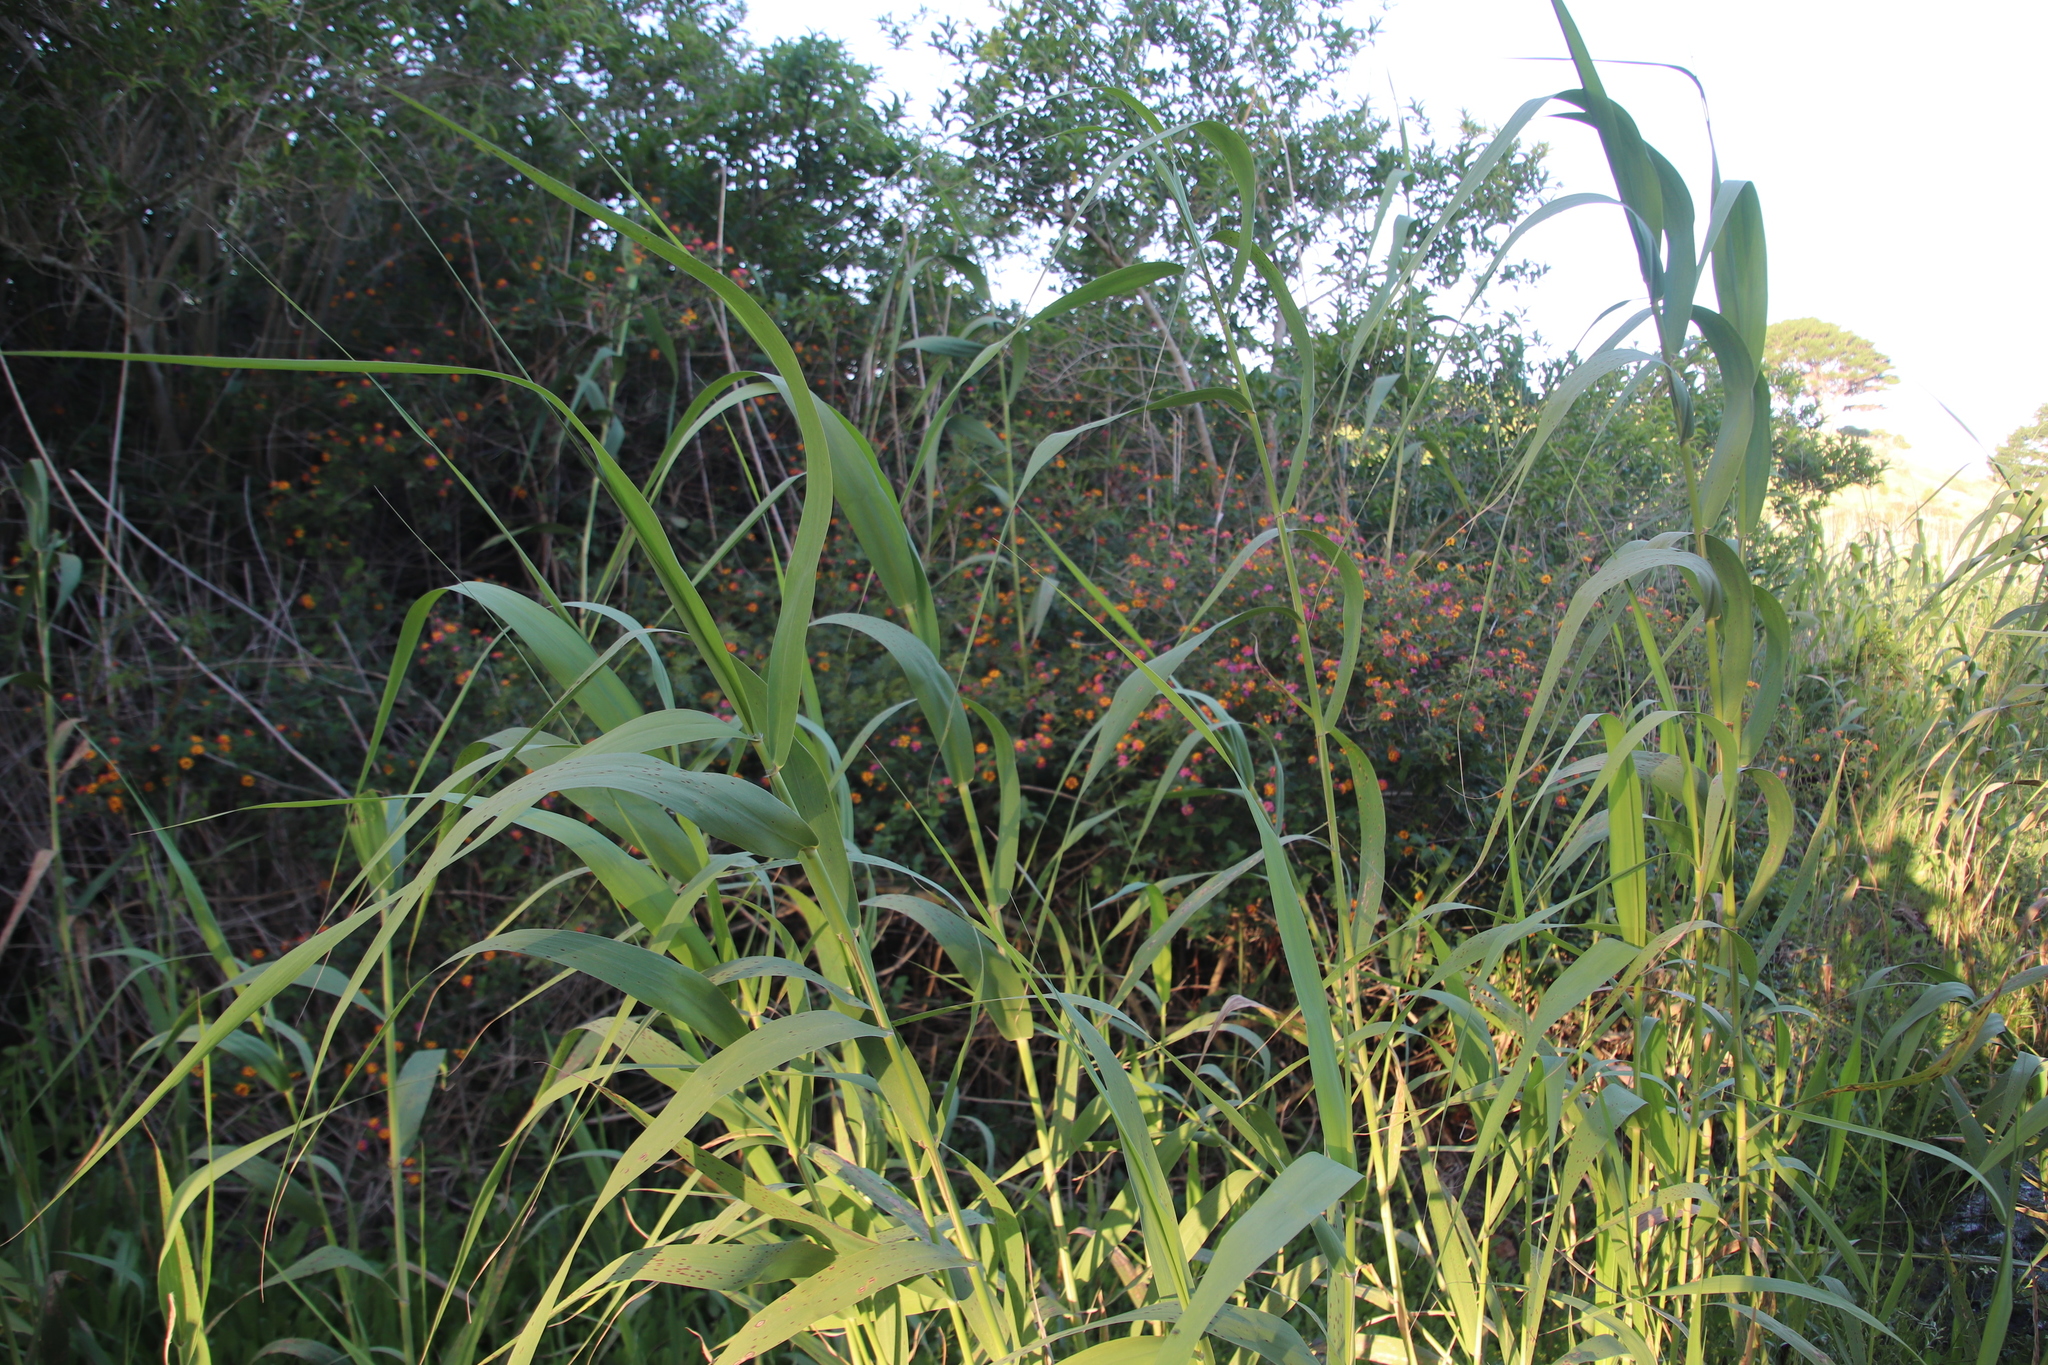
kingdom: Plantae
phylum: Tracheophyta
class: Magnoliopsida
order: Lamiales
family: Verbenaceae
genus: Lantana
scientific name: Lantana camara
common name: Lantana
